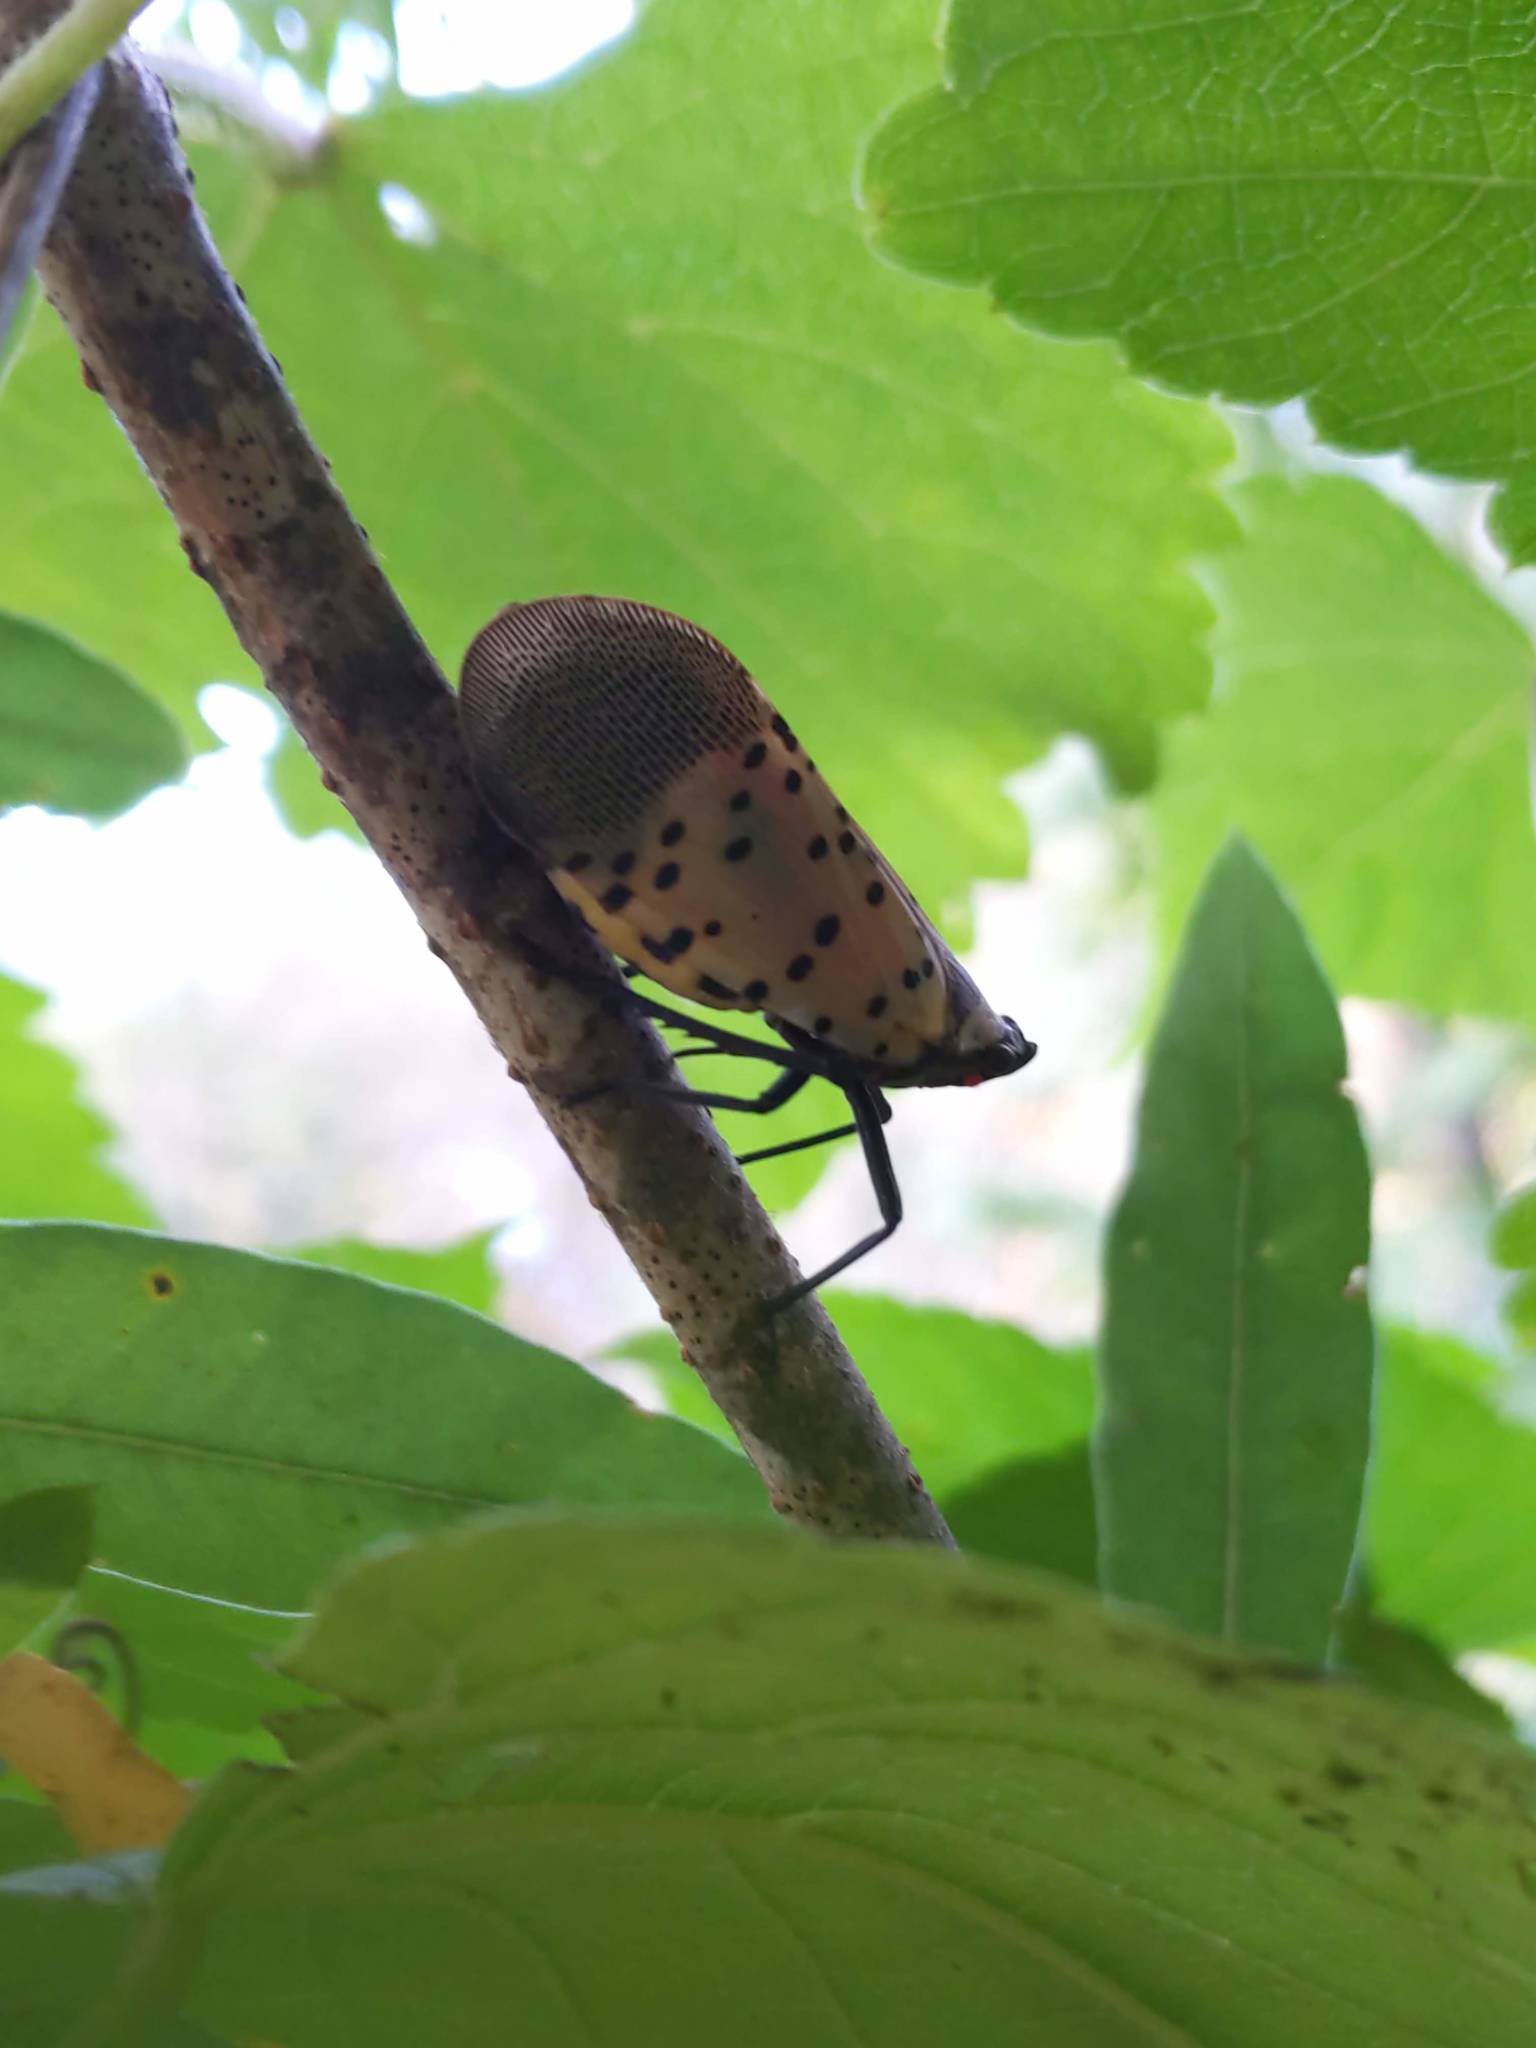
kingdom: Animalia
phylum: Arthropoda
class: Insecta
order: Hemiptera
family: Fulgoridae
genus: Lycorma
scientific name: Lycorma delicatula
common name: Spotted lanternfly
